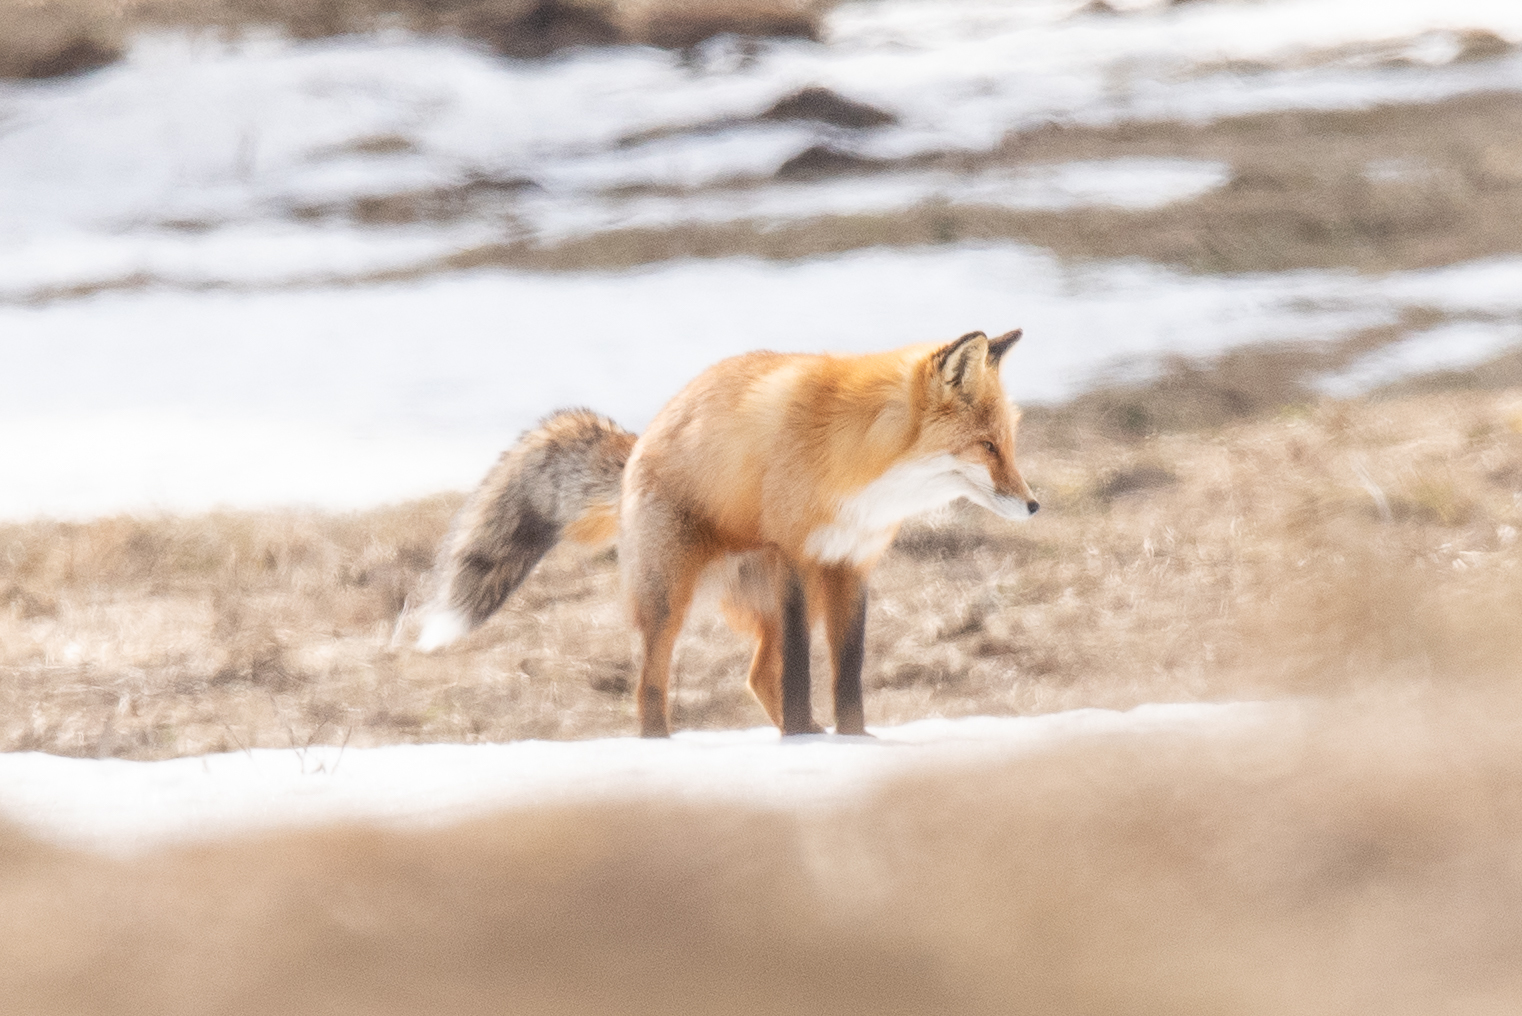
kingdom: Animalia
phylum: Chordata
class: Mammalia
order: Carnivora
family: Canidae
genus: Vulpes
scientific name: Vulpes vulpes
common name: Red fox
